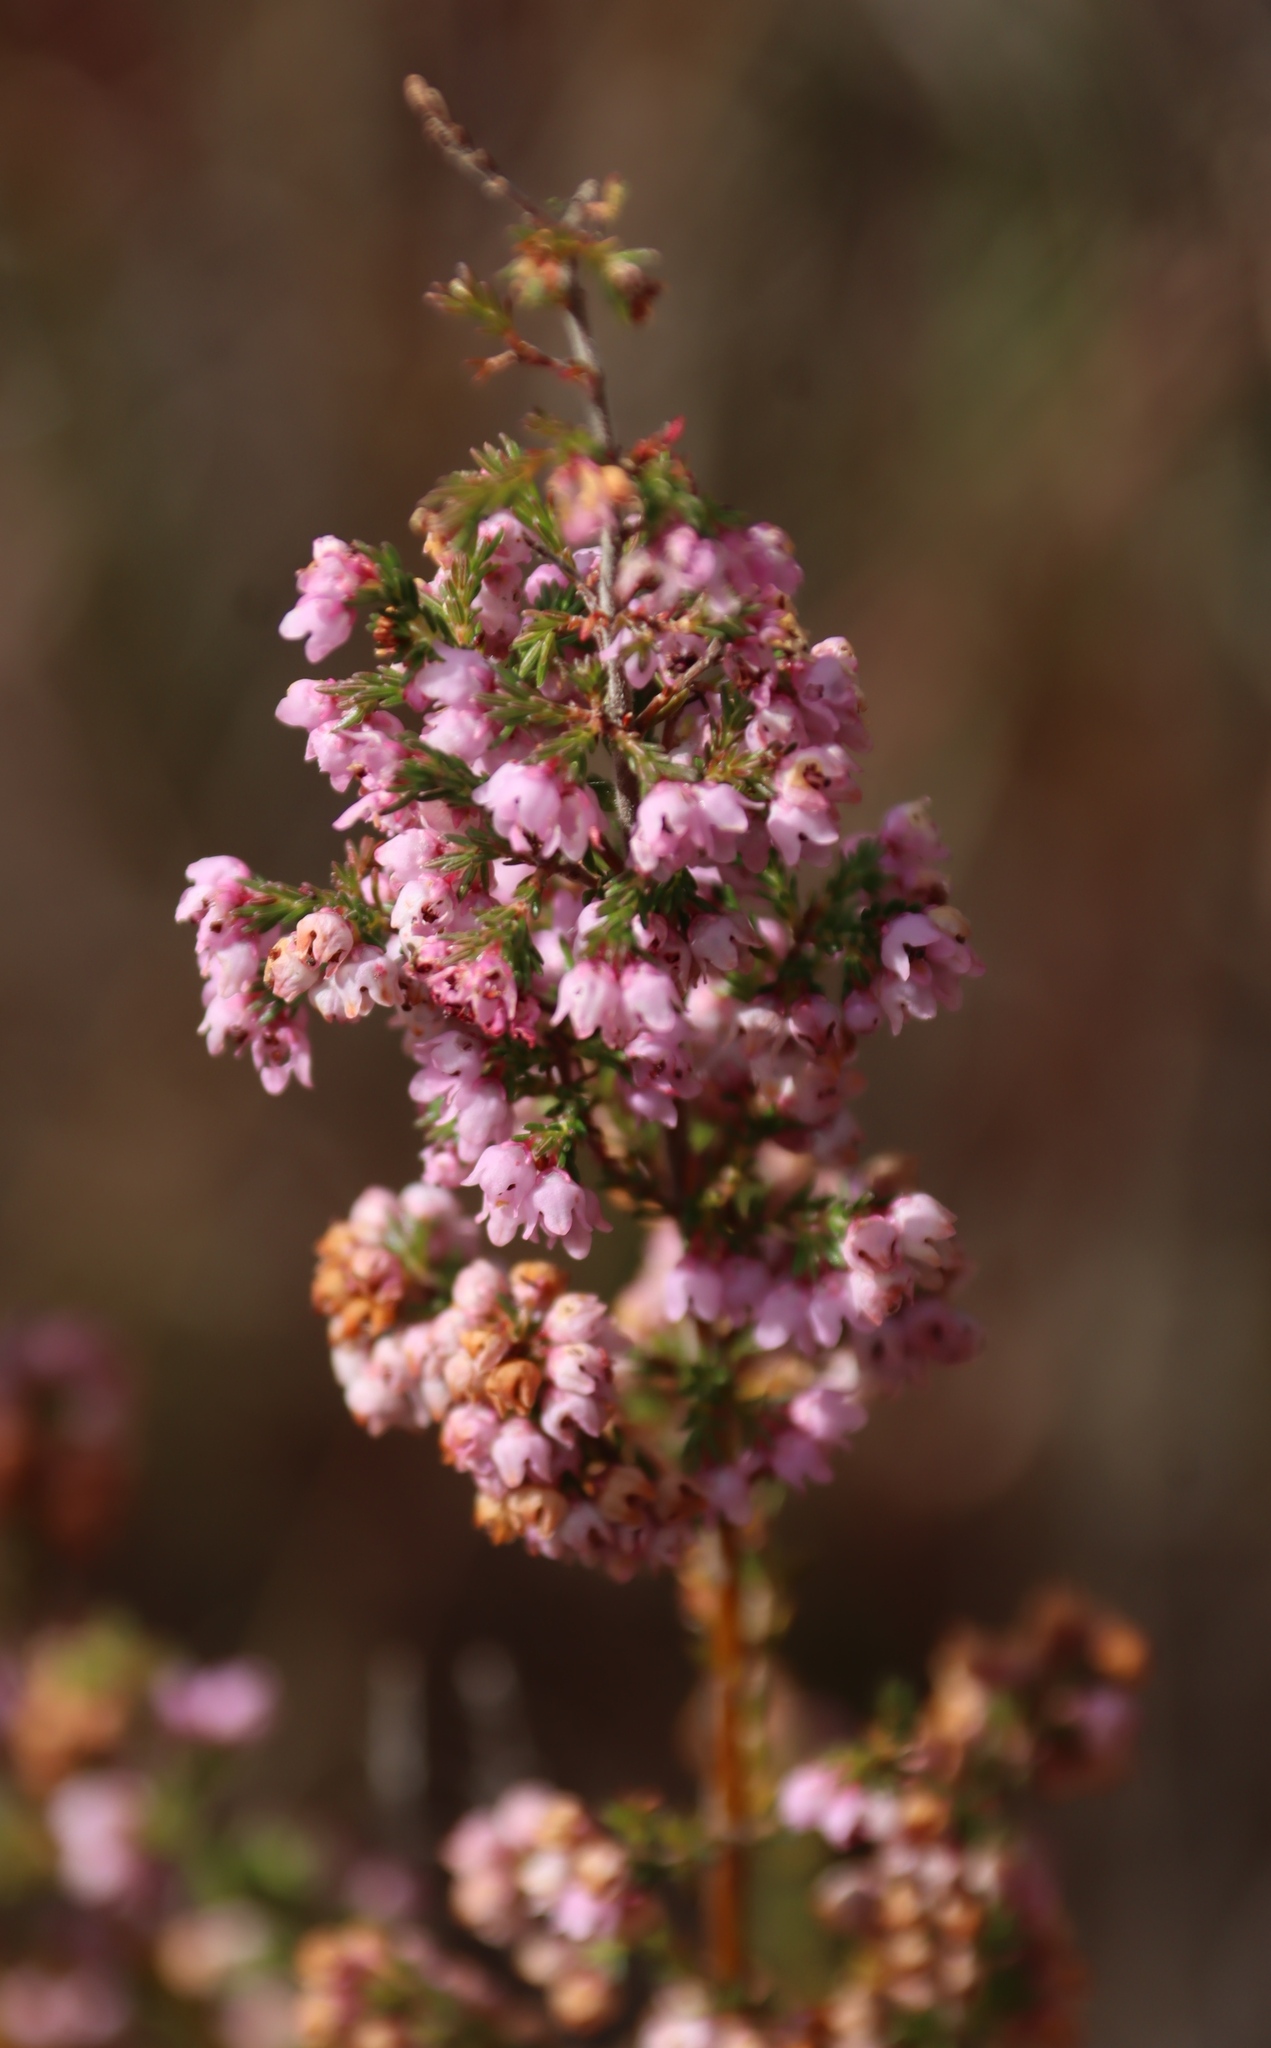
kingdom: Plantae
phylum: Tracheophyta
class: Magnoliopsida
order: Ericales
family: Ericaceae
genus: Erica
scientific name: Erica mauritanica
